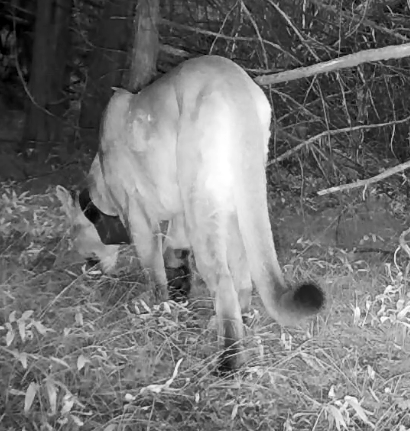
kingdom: Animalia
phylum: Chordata
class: Mammalia
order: Carnivora
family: Felidae
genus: Puma
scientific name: Puma concolor
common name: Puma
